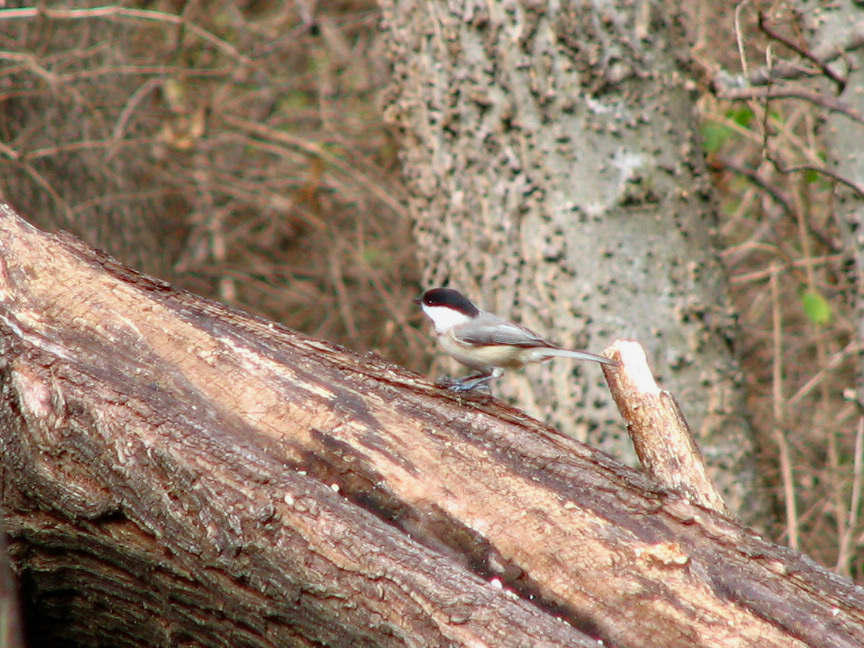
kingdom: Animalia
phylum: Chordata
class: Aves
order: Passeriformes
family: Paridae
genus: Poecile
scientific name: Poecile carolinensis
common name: Carolina chickadee
